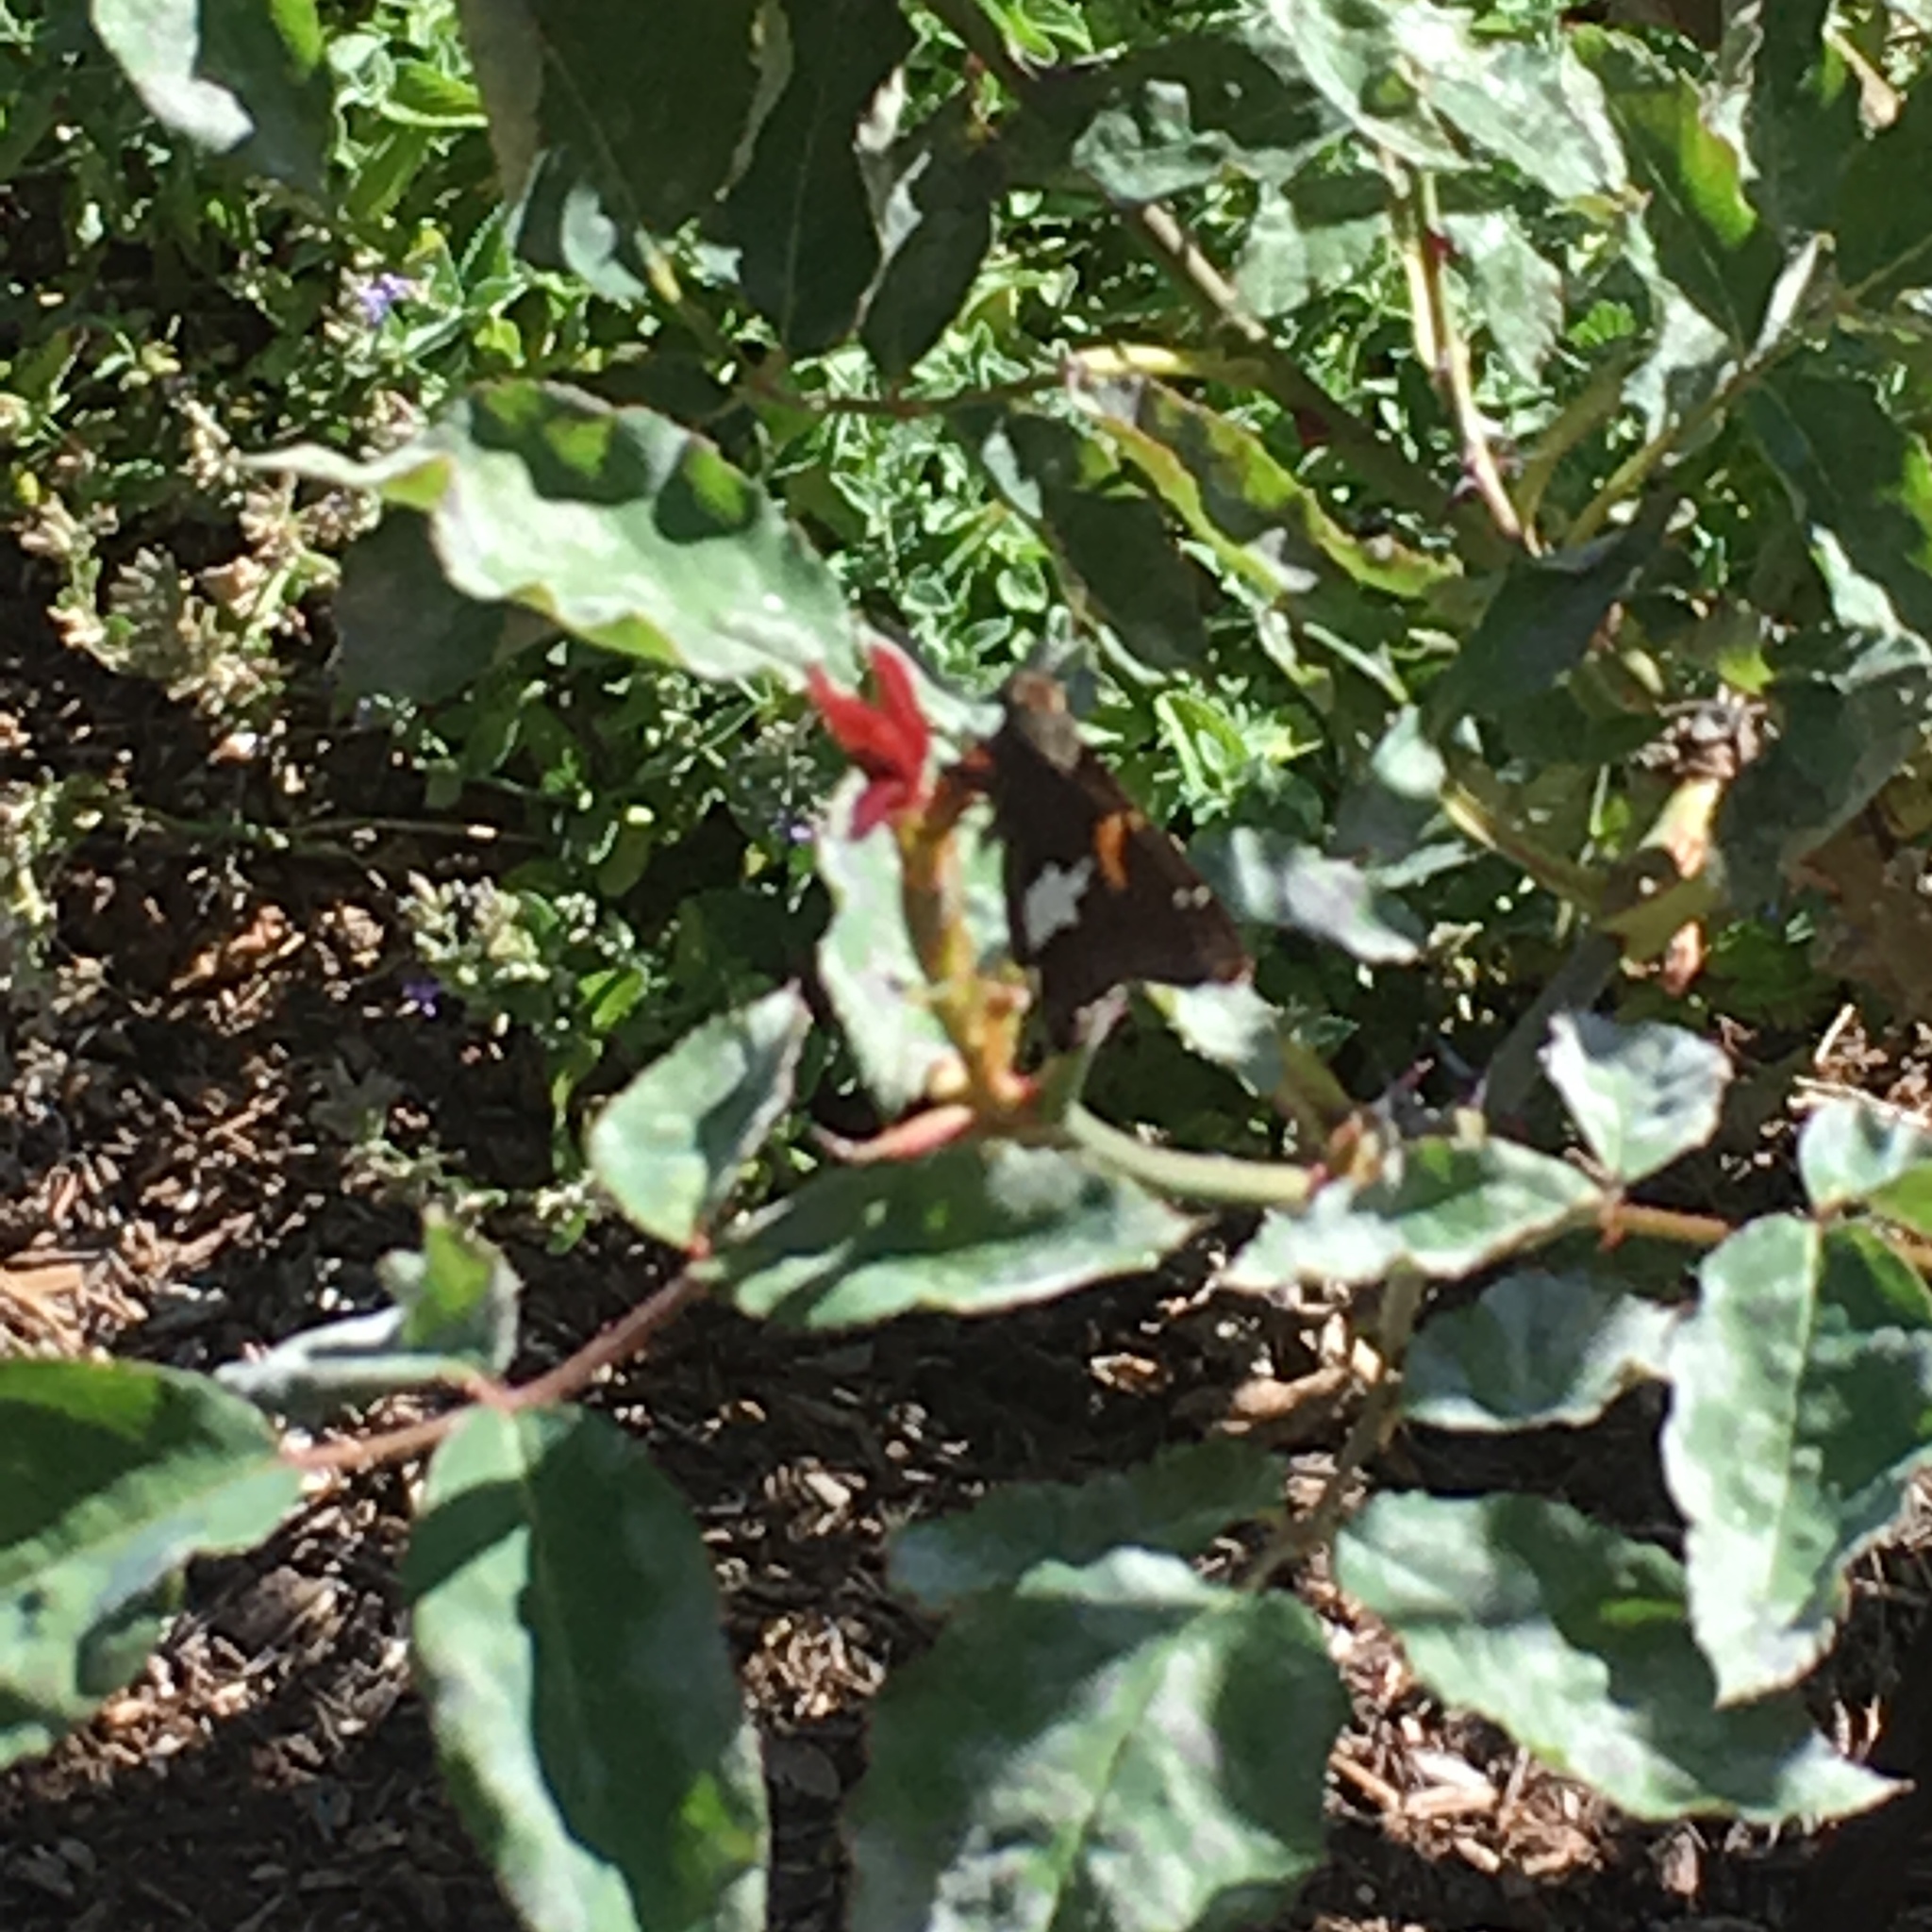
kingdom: Animalia
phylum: Arthropoda
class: Insecta
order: Lepidoptera
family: Hesperiidae
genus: Epargyreus
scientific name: Epargyreus clarus
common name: Silver-spotted skipper
